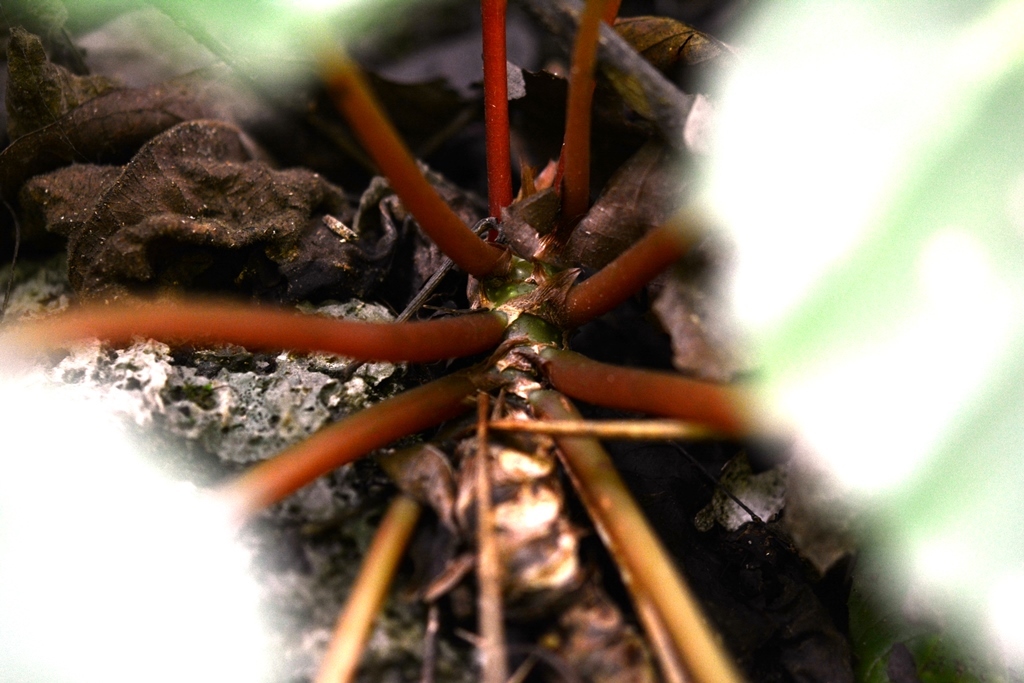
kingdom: Plantae
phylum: Tracheophyta
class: Magnoliopsida
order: Cucurbitales
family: Begoniaceae
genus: Begonia
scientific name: Begonia sericoneura
